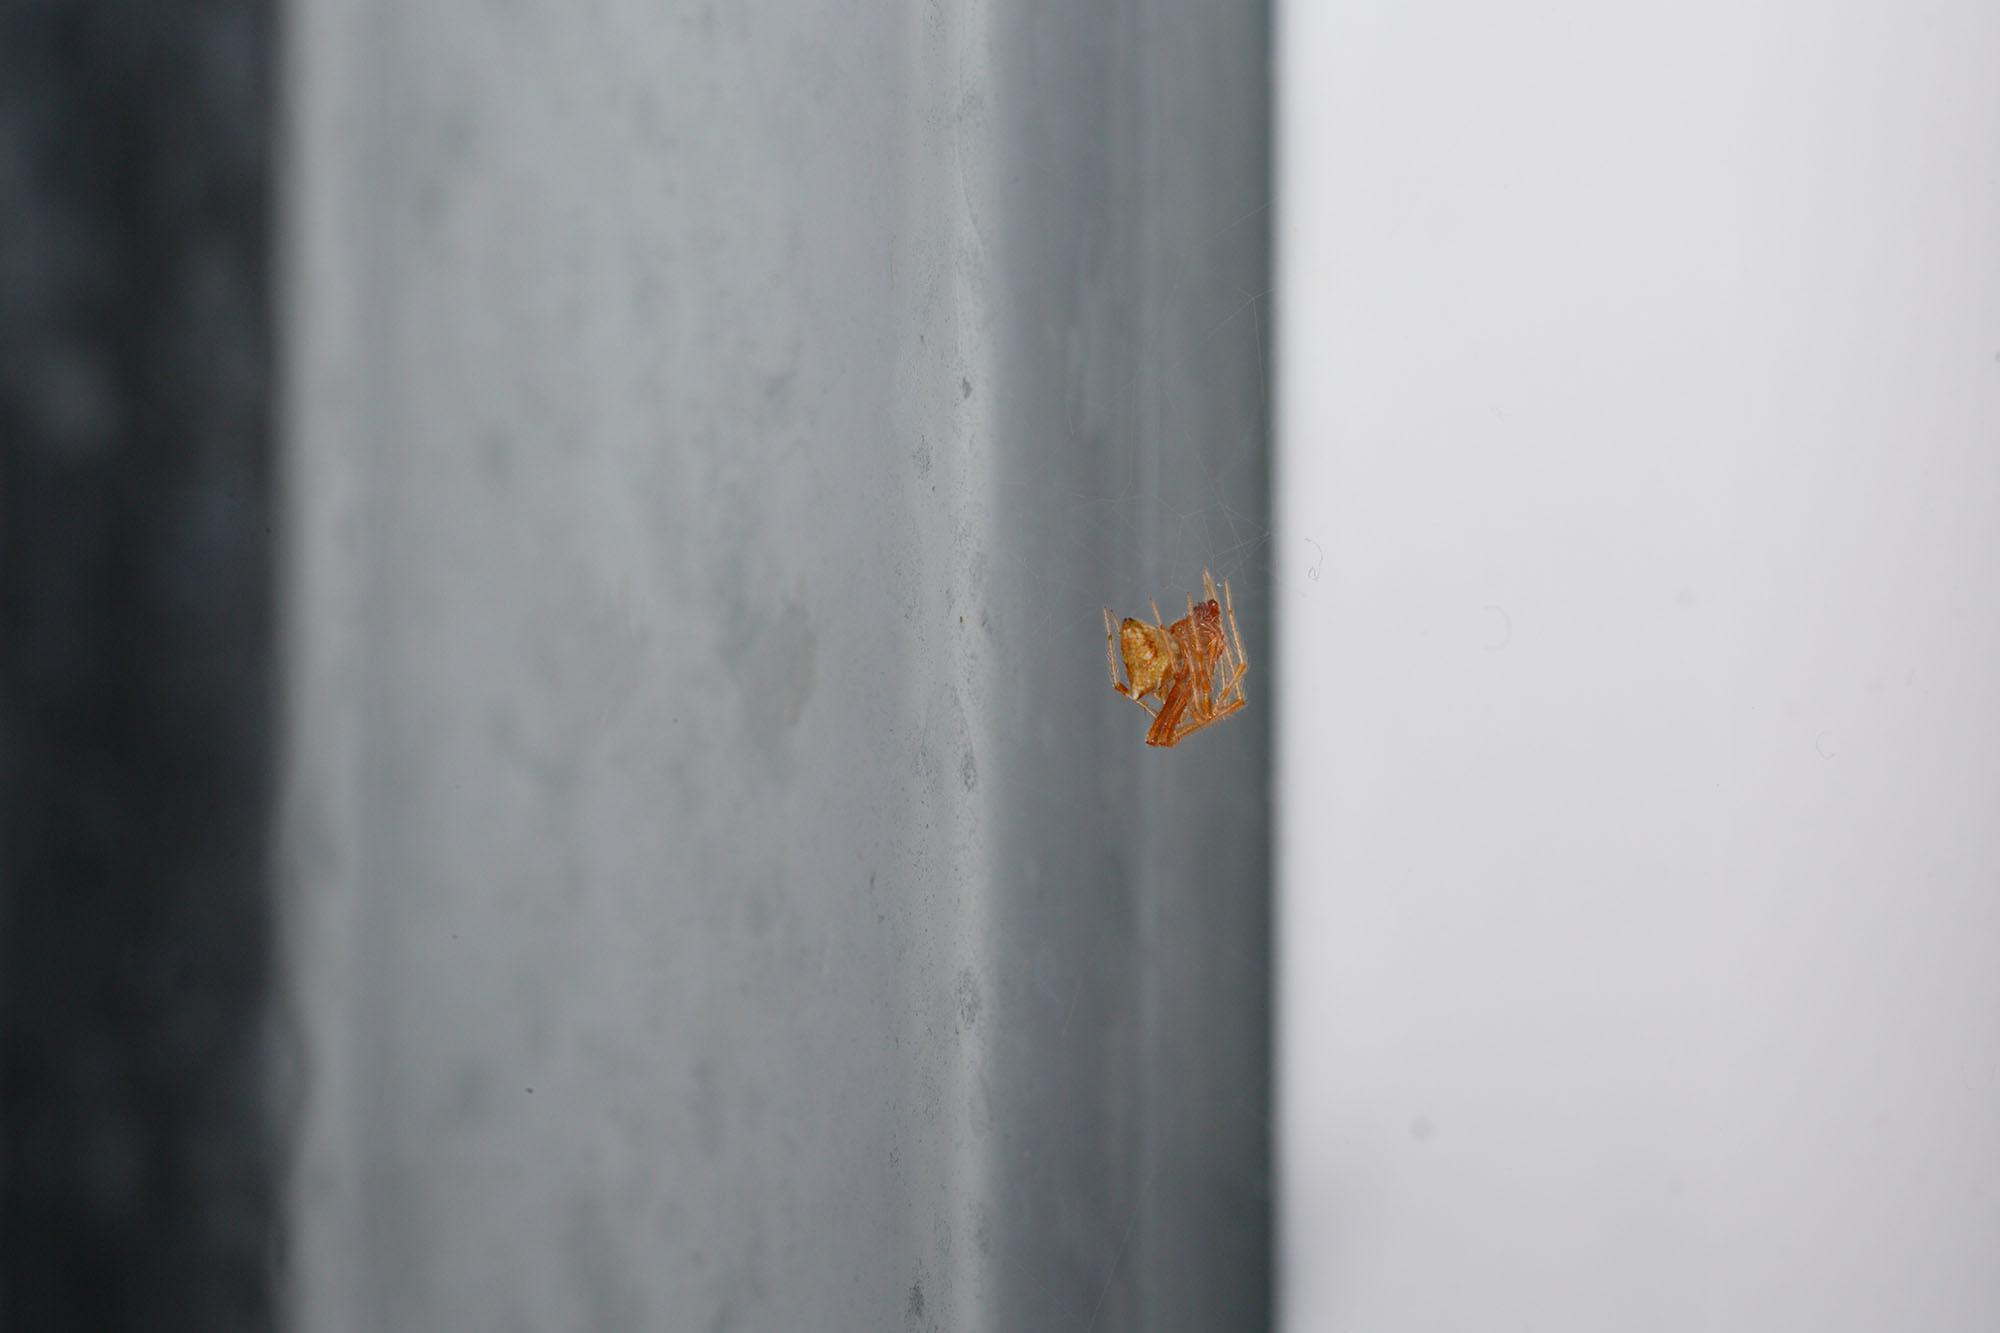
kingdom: Animalia
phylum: Arthropoda
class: Arachnida
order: Araneae
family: Theridiidae
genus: Cryptachaea
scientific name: Cryptachaea meraukensis
